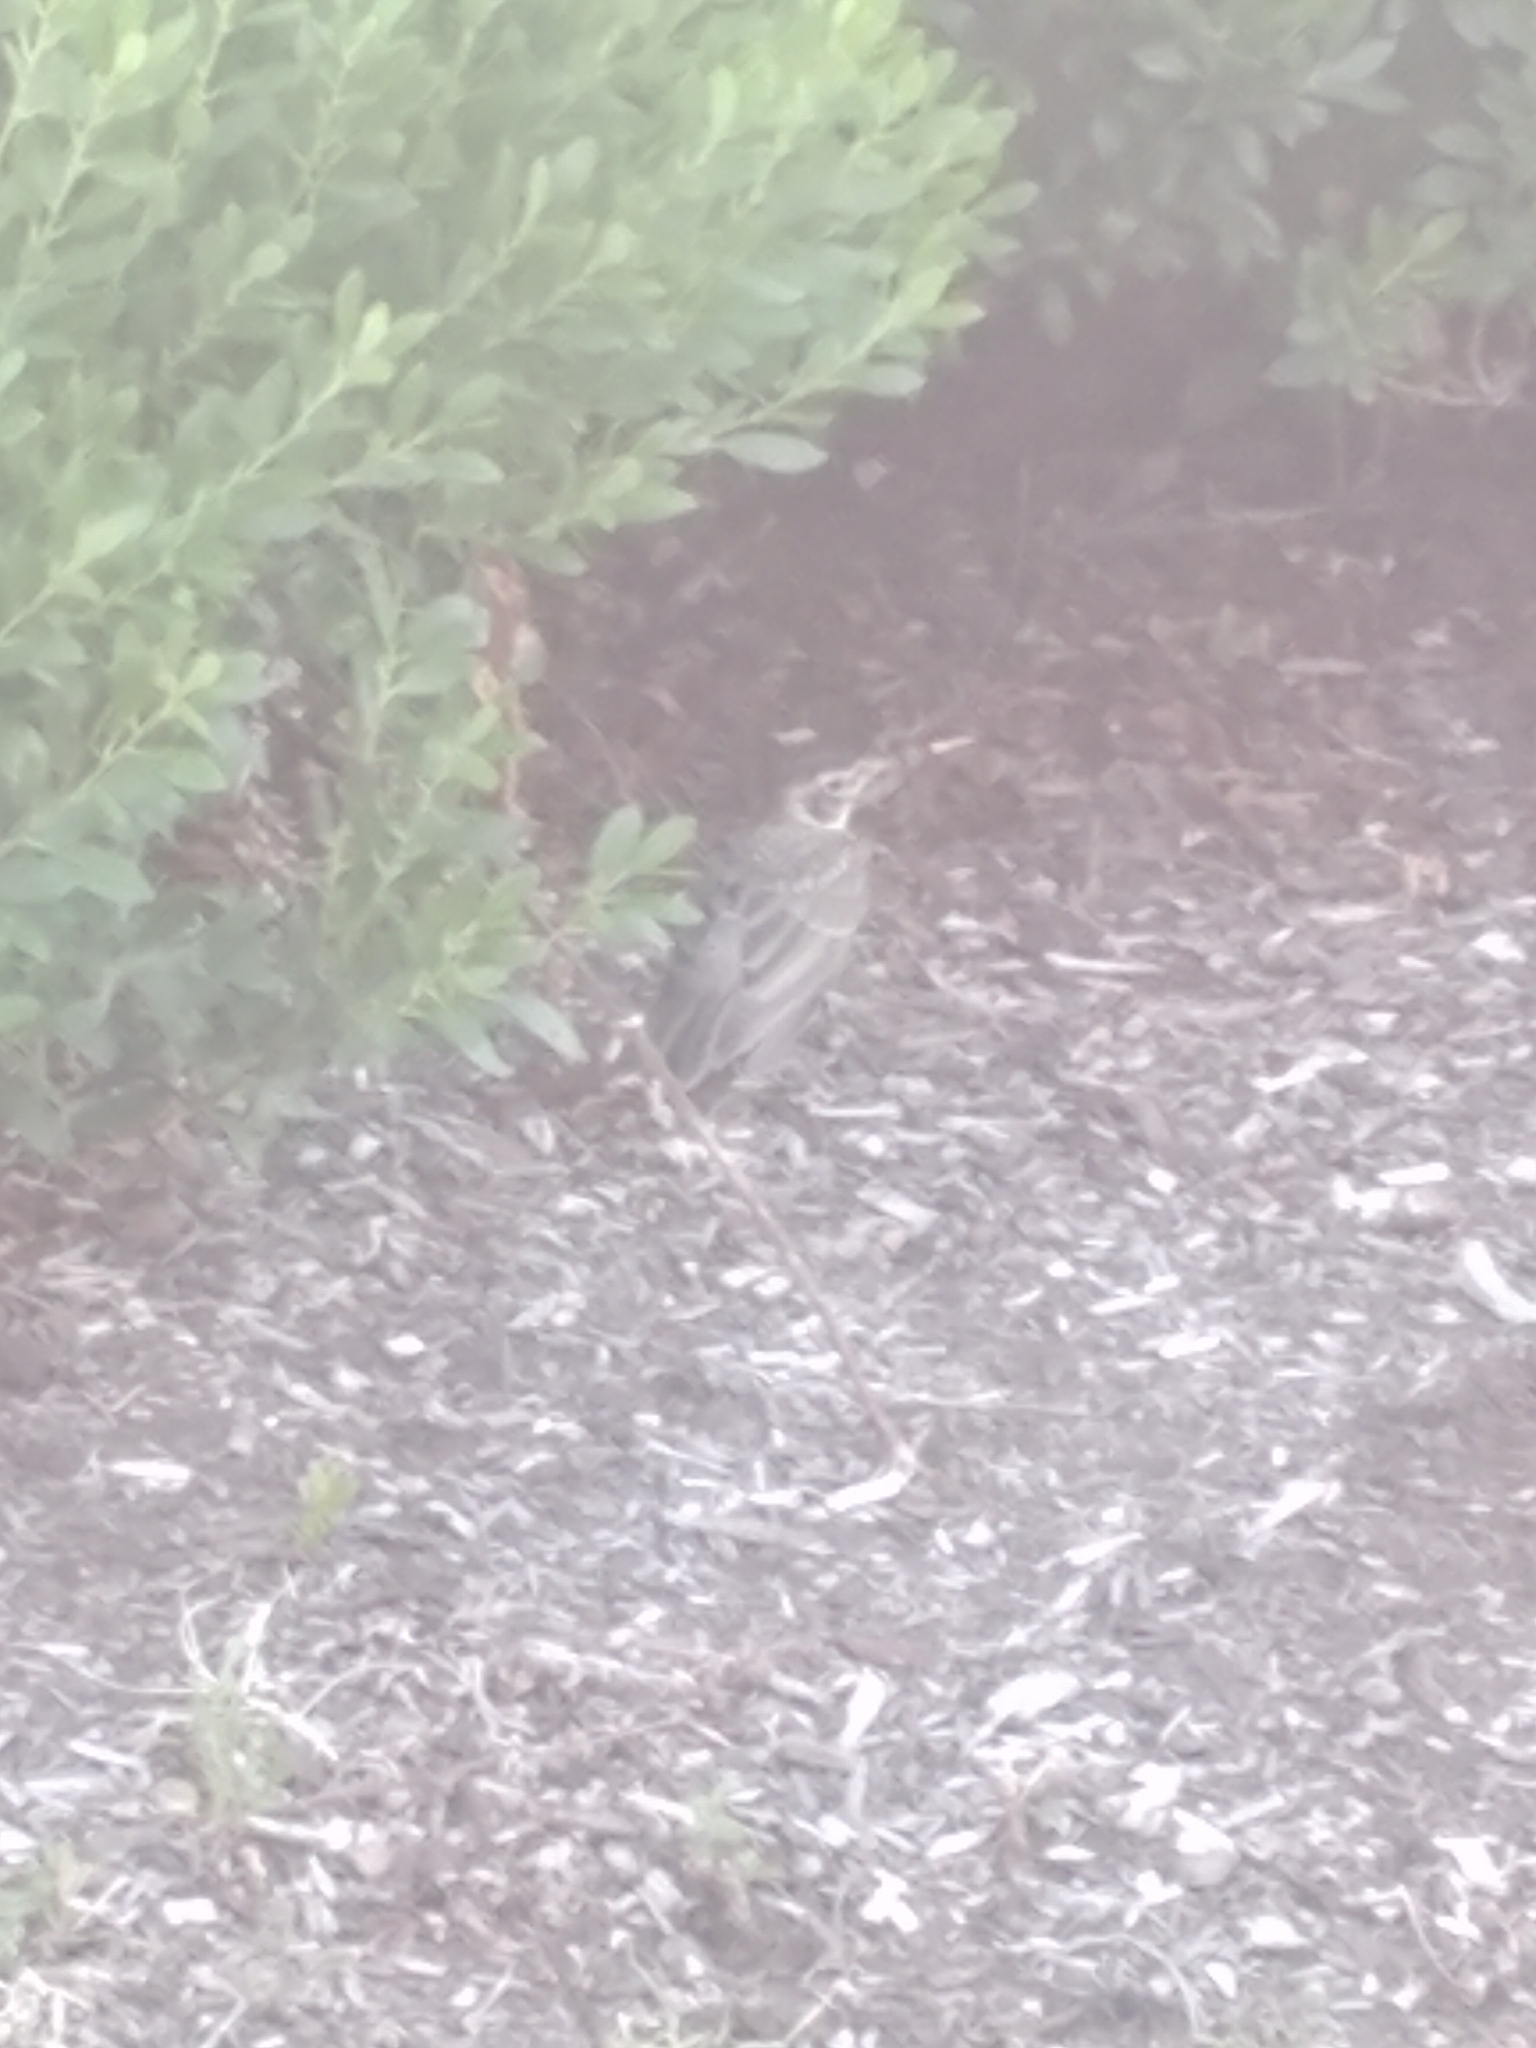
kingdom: Animalia
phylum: Chordata
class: Aves
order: Passeriformes
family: Turdidae
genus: Turdus
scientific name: Turdus migratorius
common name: American robin
